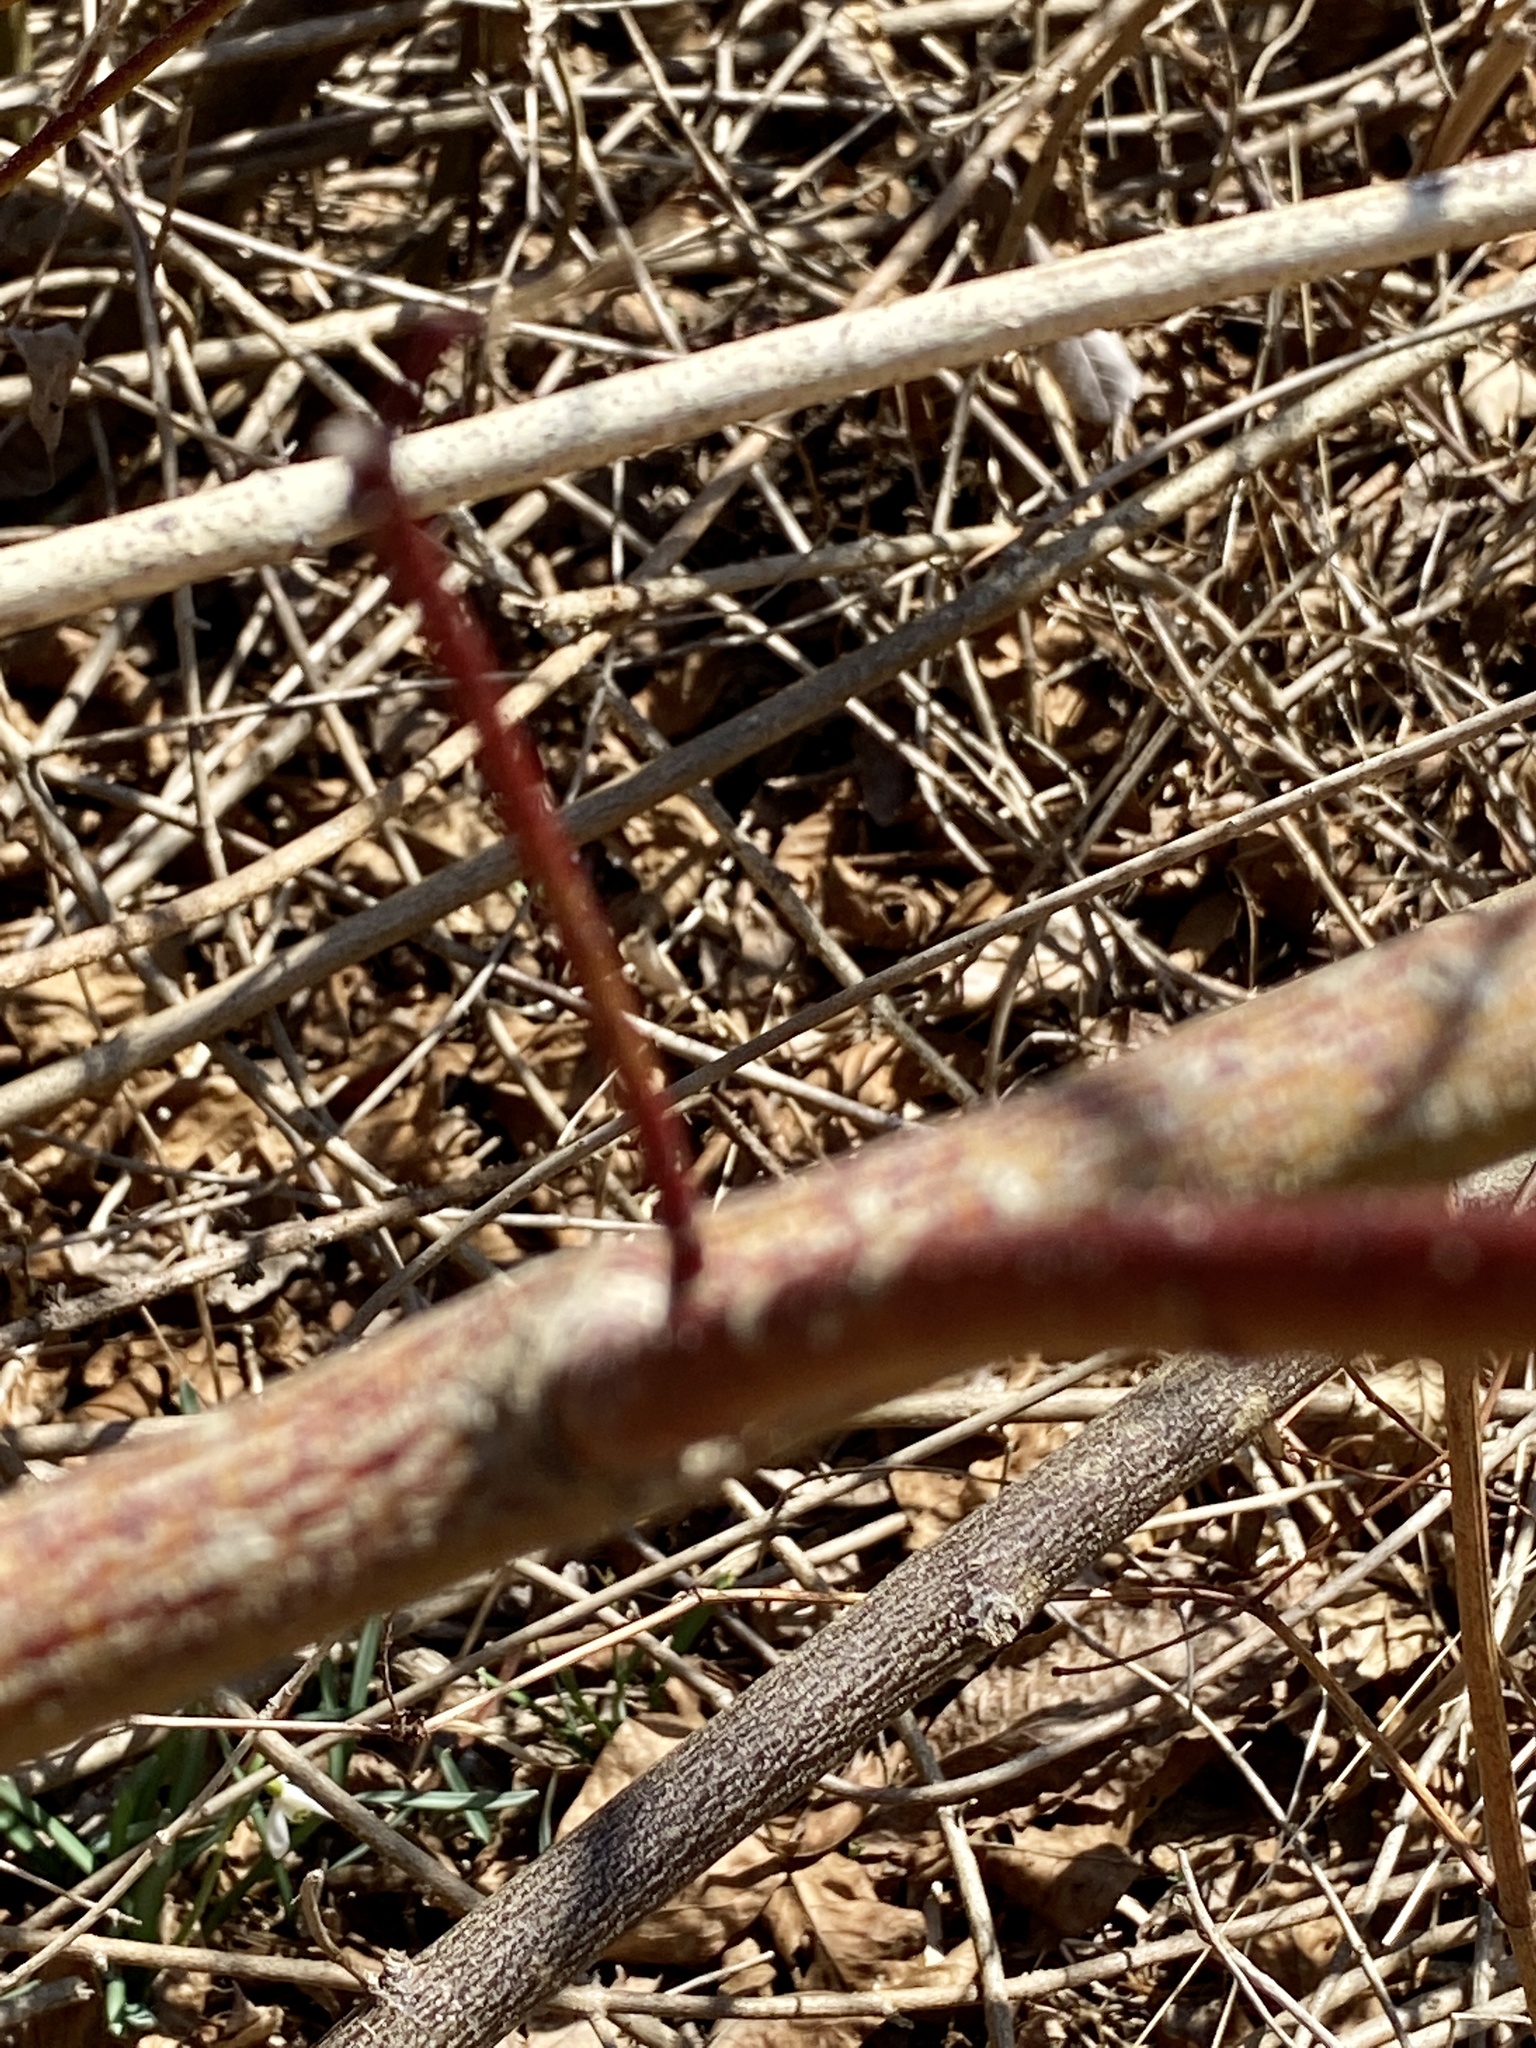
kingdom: Plantae
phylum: Tracheophyta
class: Magnoliopsida
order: Cornales
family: Cornaceae
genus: Cornus
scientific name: Cornus amomum
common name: Silky dogwood
